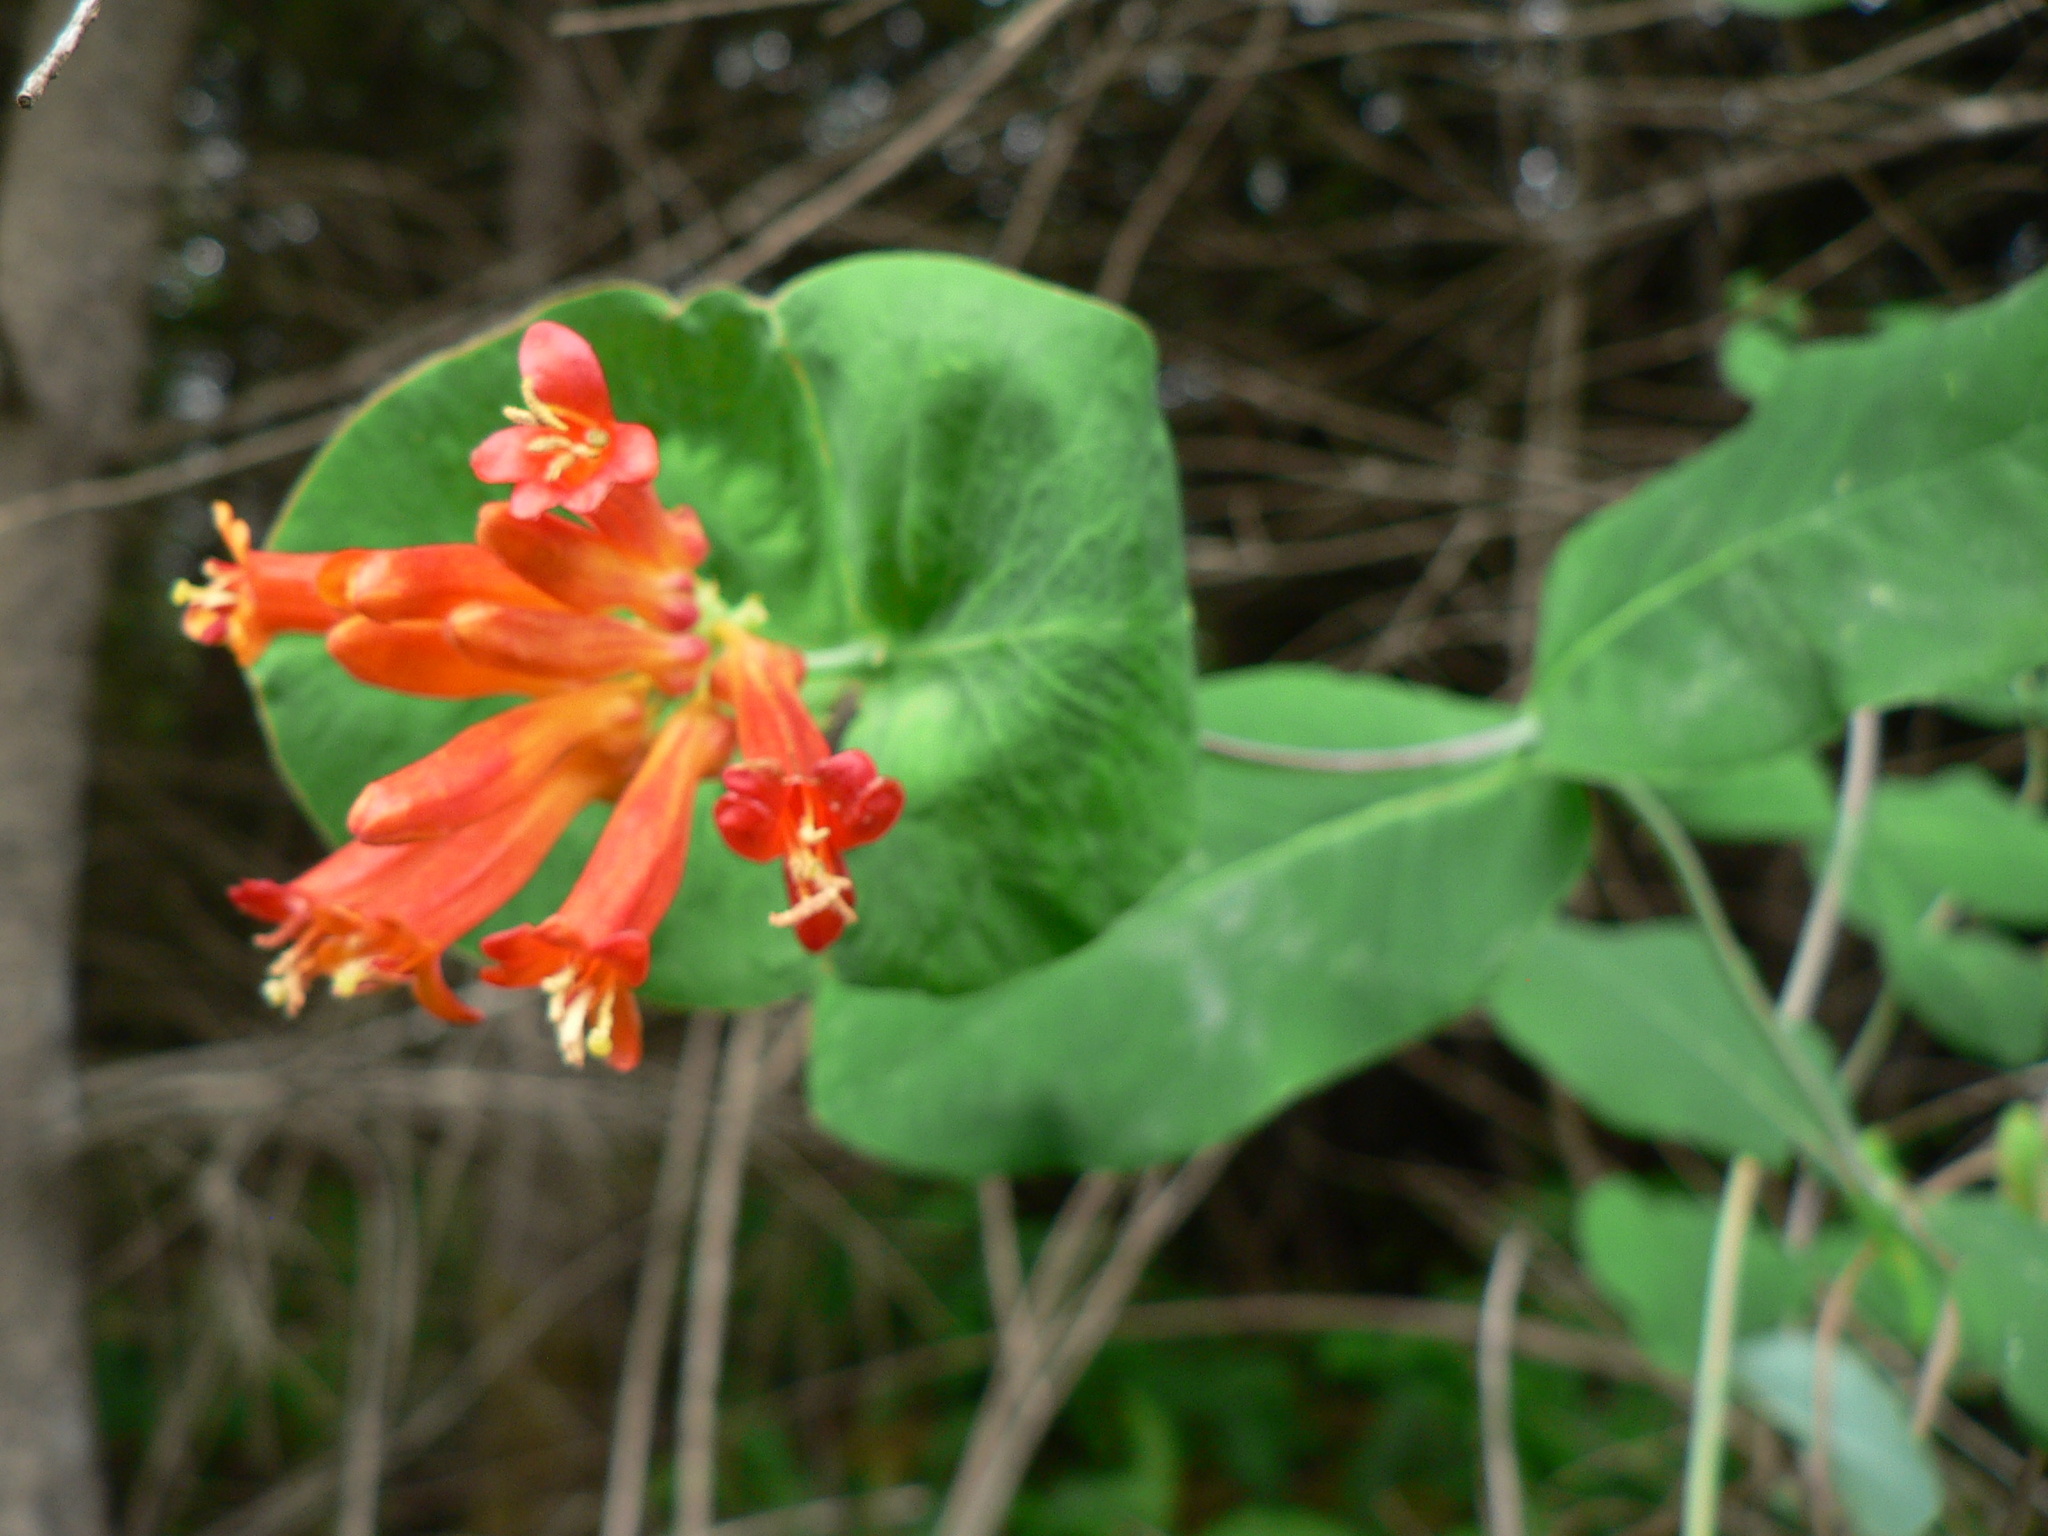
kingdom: Plantae
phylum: Tracheophyta
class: Magnoliopsida
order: Dipsacales
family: Caprifoliaceae
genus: Lonicera
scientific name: Lonicera ciliosa
